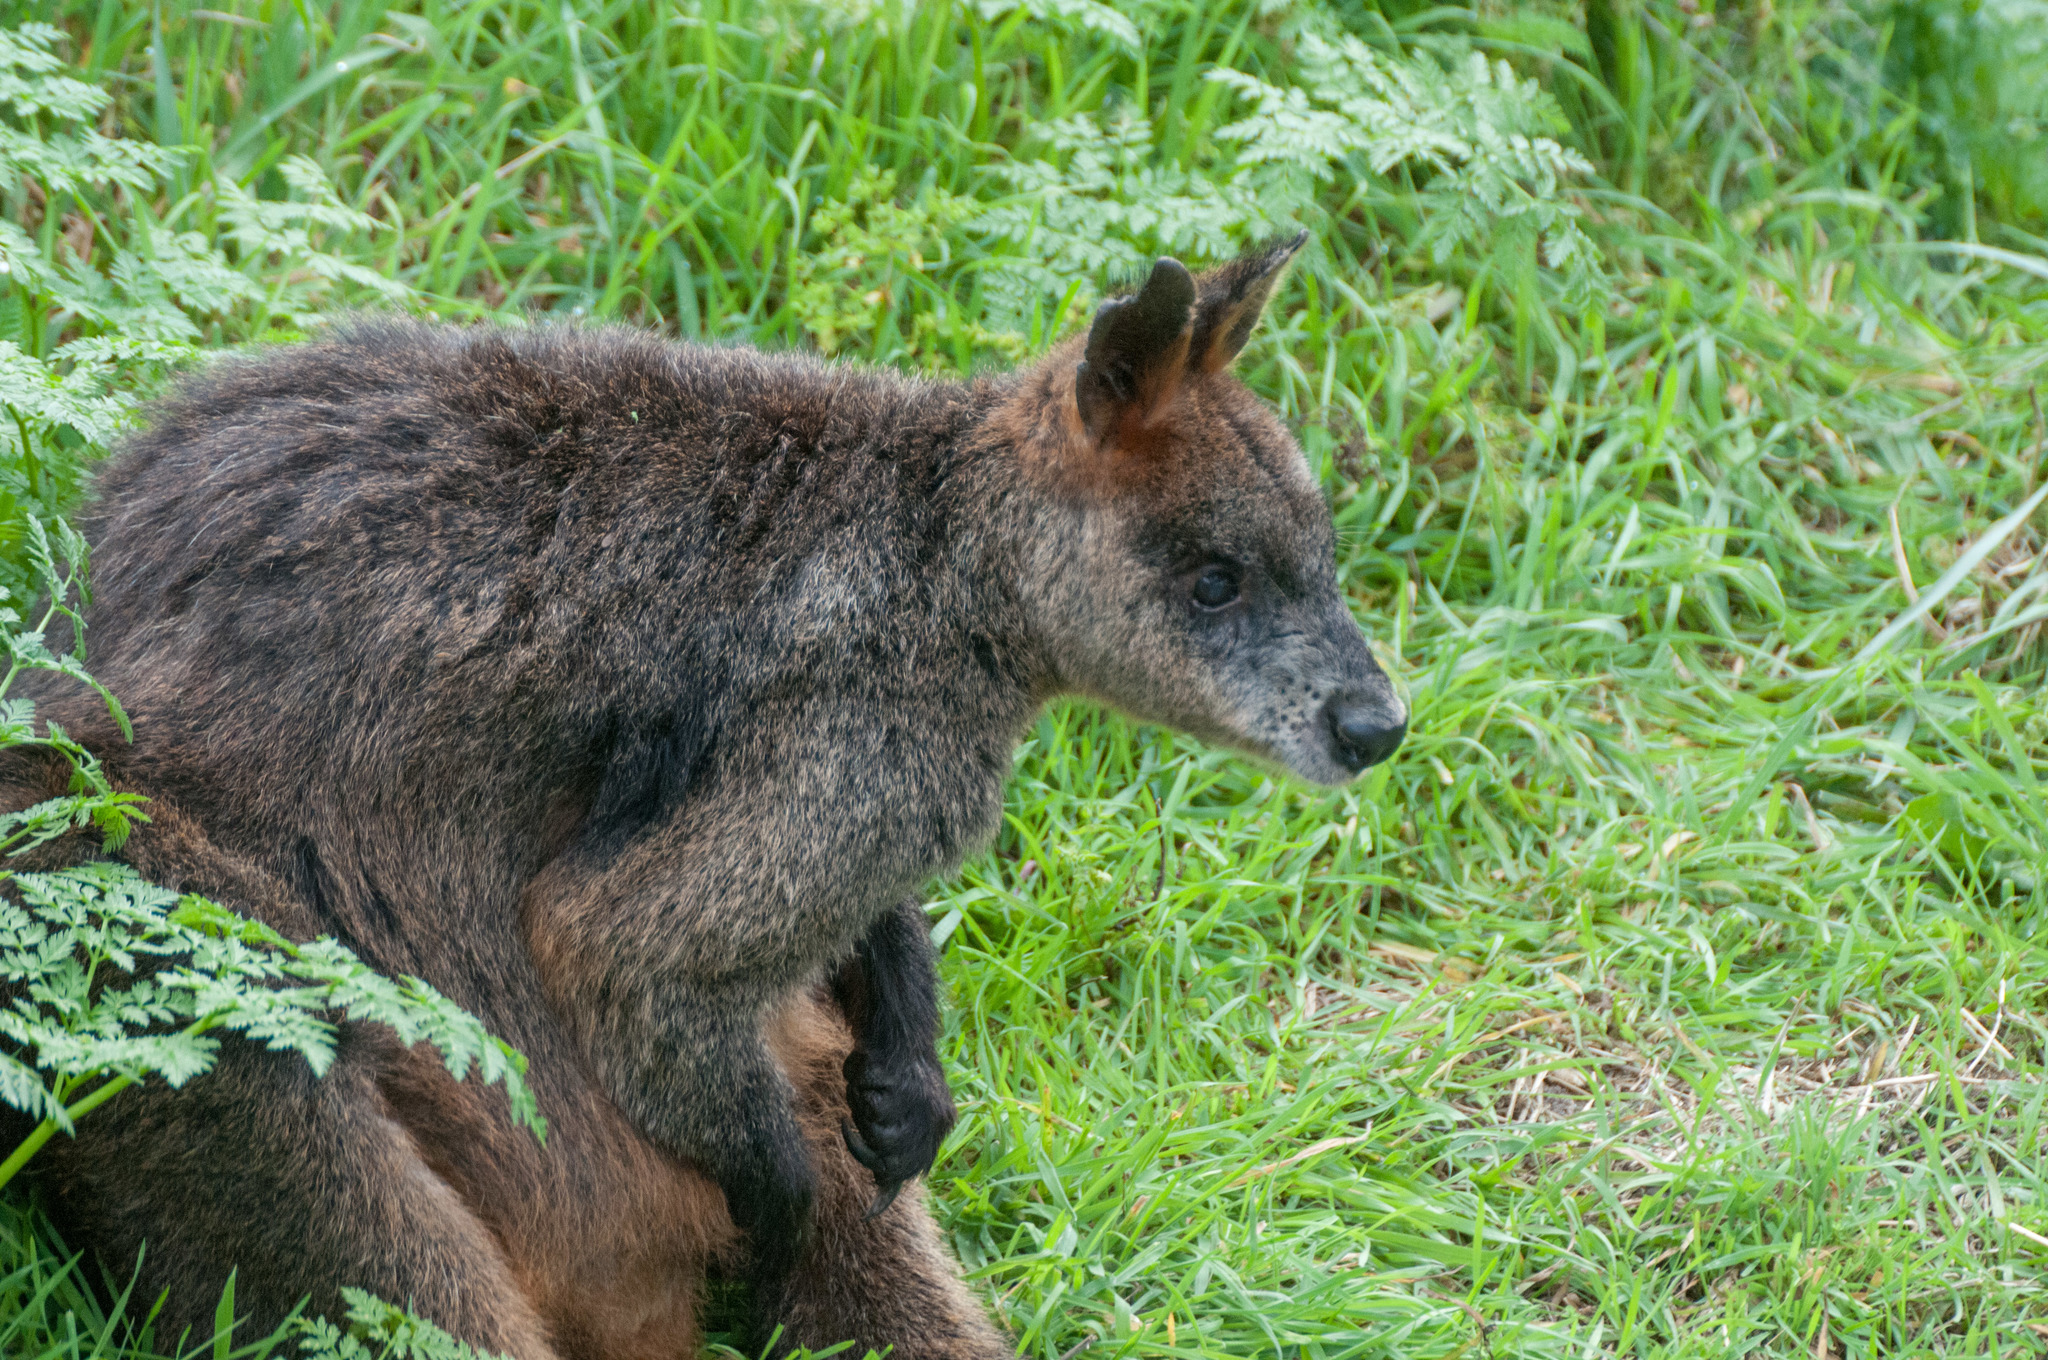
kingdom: Animalia
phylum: Chordata
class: Mammalia
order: Diprotodontia
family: Macropodidae
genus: Wallabia
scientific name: Wallabia bicolor
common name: Swamp wallaby
